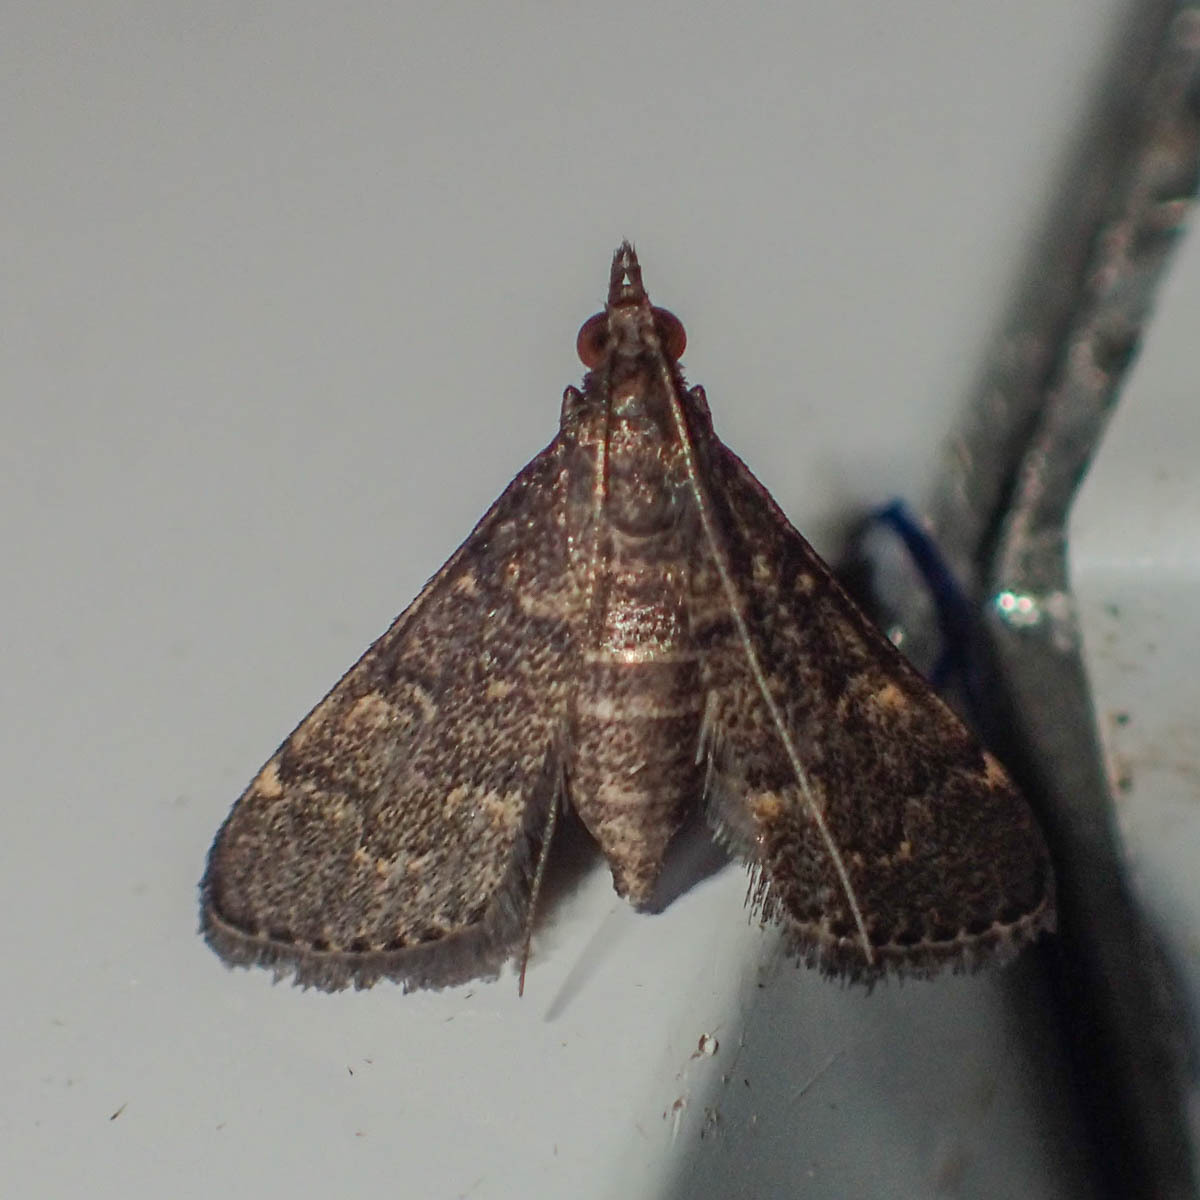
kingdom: Animalia
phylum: Arthropoda
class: Insecta
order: Lepidoptera
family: Crambidae
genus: Symmoracma
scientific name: Symmoracma minoralis
